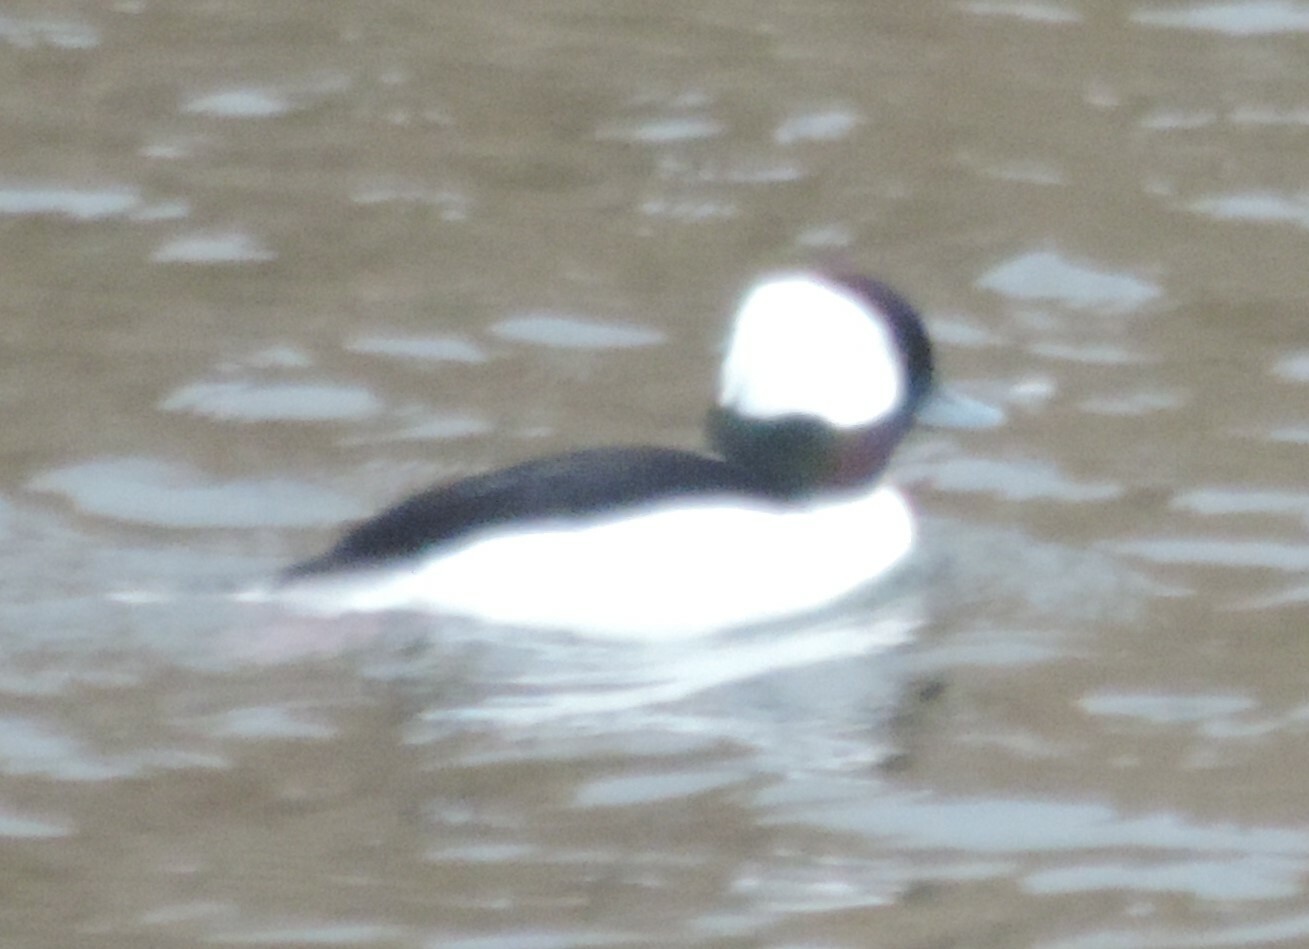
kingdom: Animalia
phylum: Chordata
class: Aves
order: Anseriformes
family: Anatidae
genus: Bucephala
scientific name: Bucephala albeola
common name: Bufflehead
